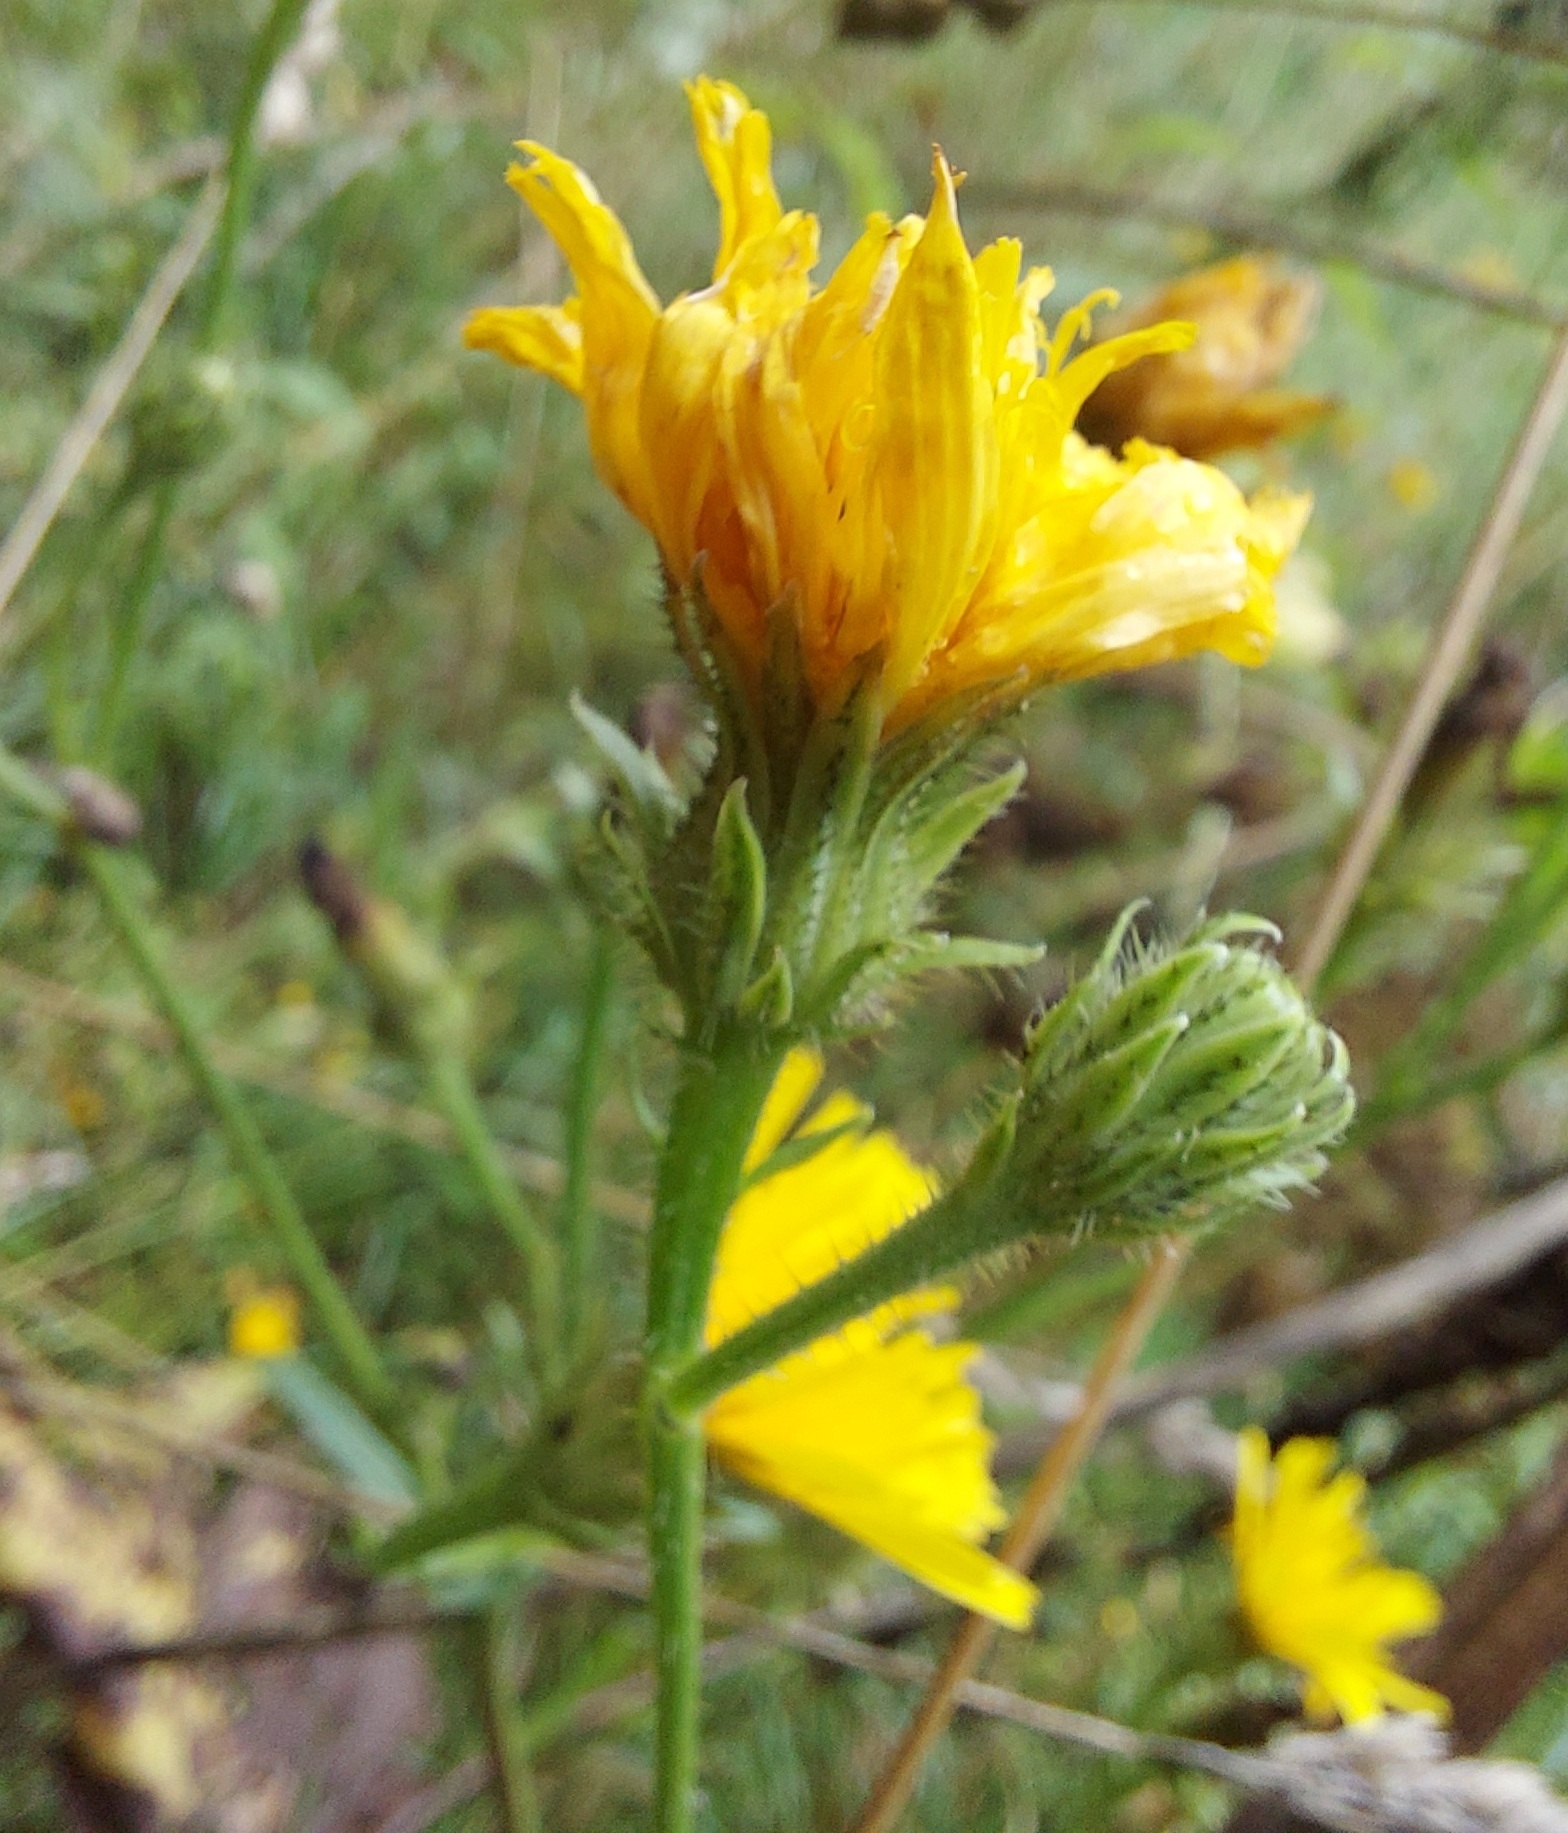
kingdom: Plantae
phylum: Tracheophyta
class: Magnoliopsida
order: Asterales
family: Asteraceae
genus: Picris
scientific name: Picris hieracioides
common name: Hawkweed oxtongue
